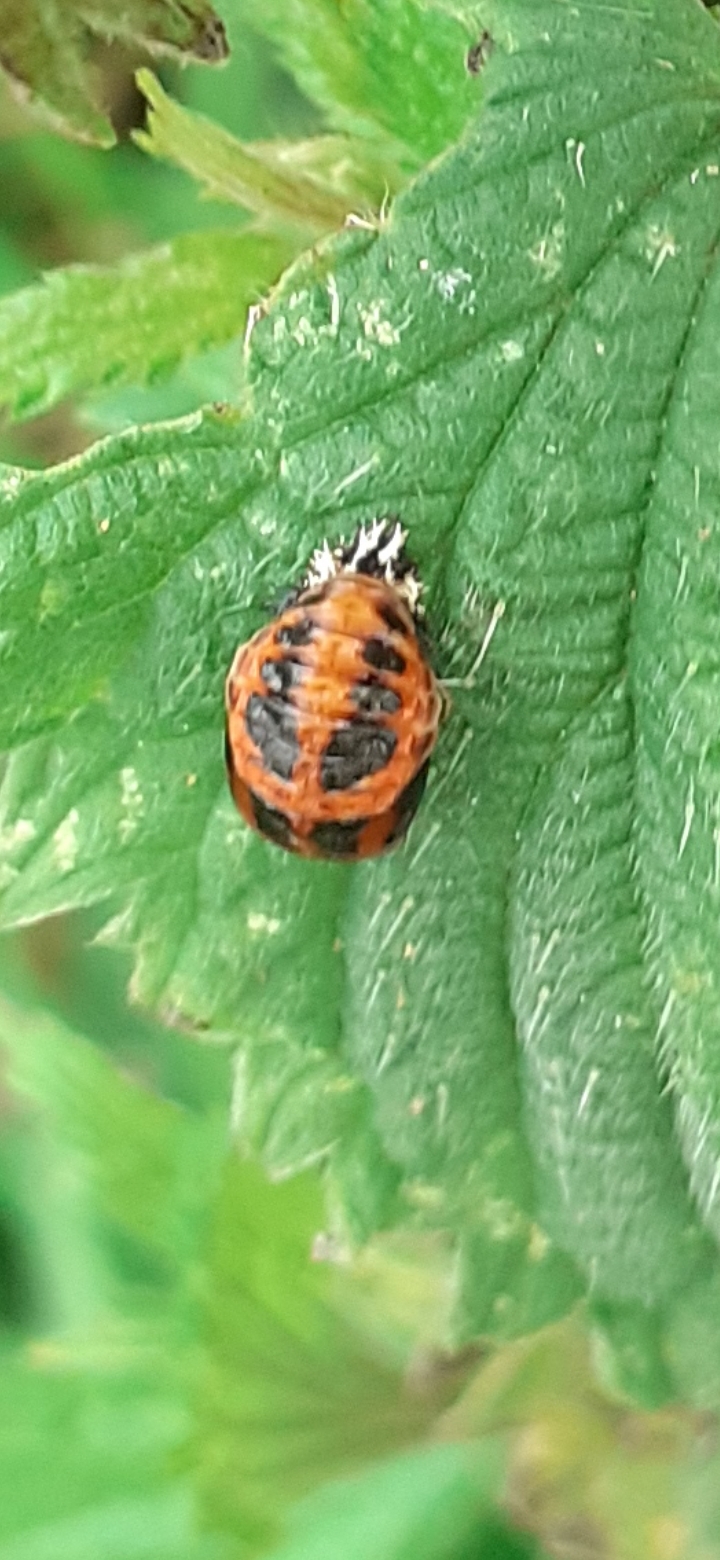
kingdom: Animalia
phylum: Arthropoda
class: Insecta
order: Coleoptera
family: Coccinellidae
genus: Harmonia
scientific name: Harmonia axyridis
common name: Harlequin ladybird
